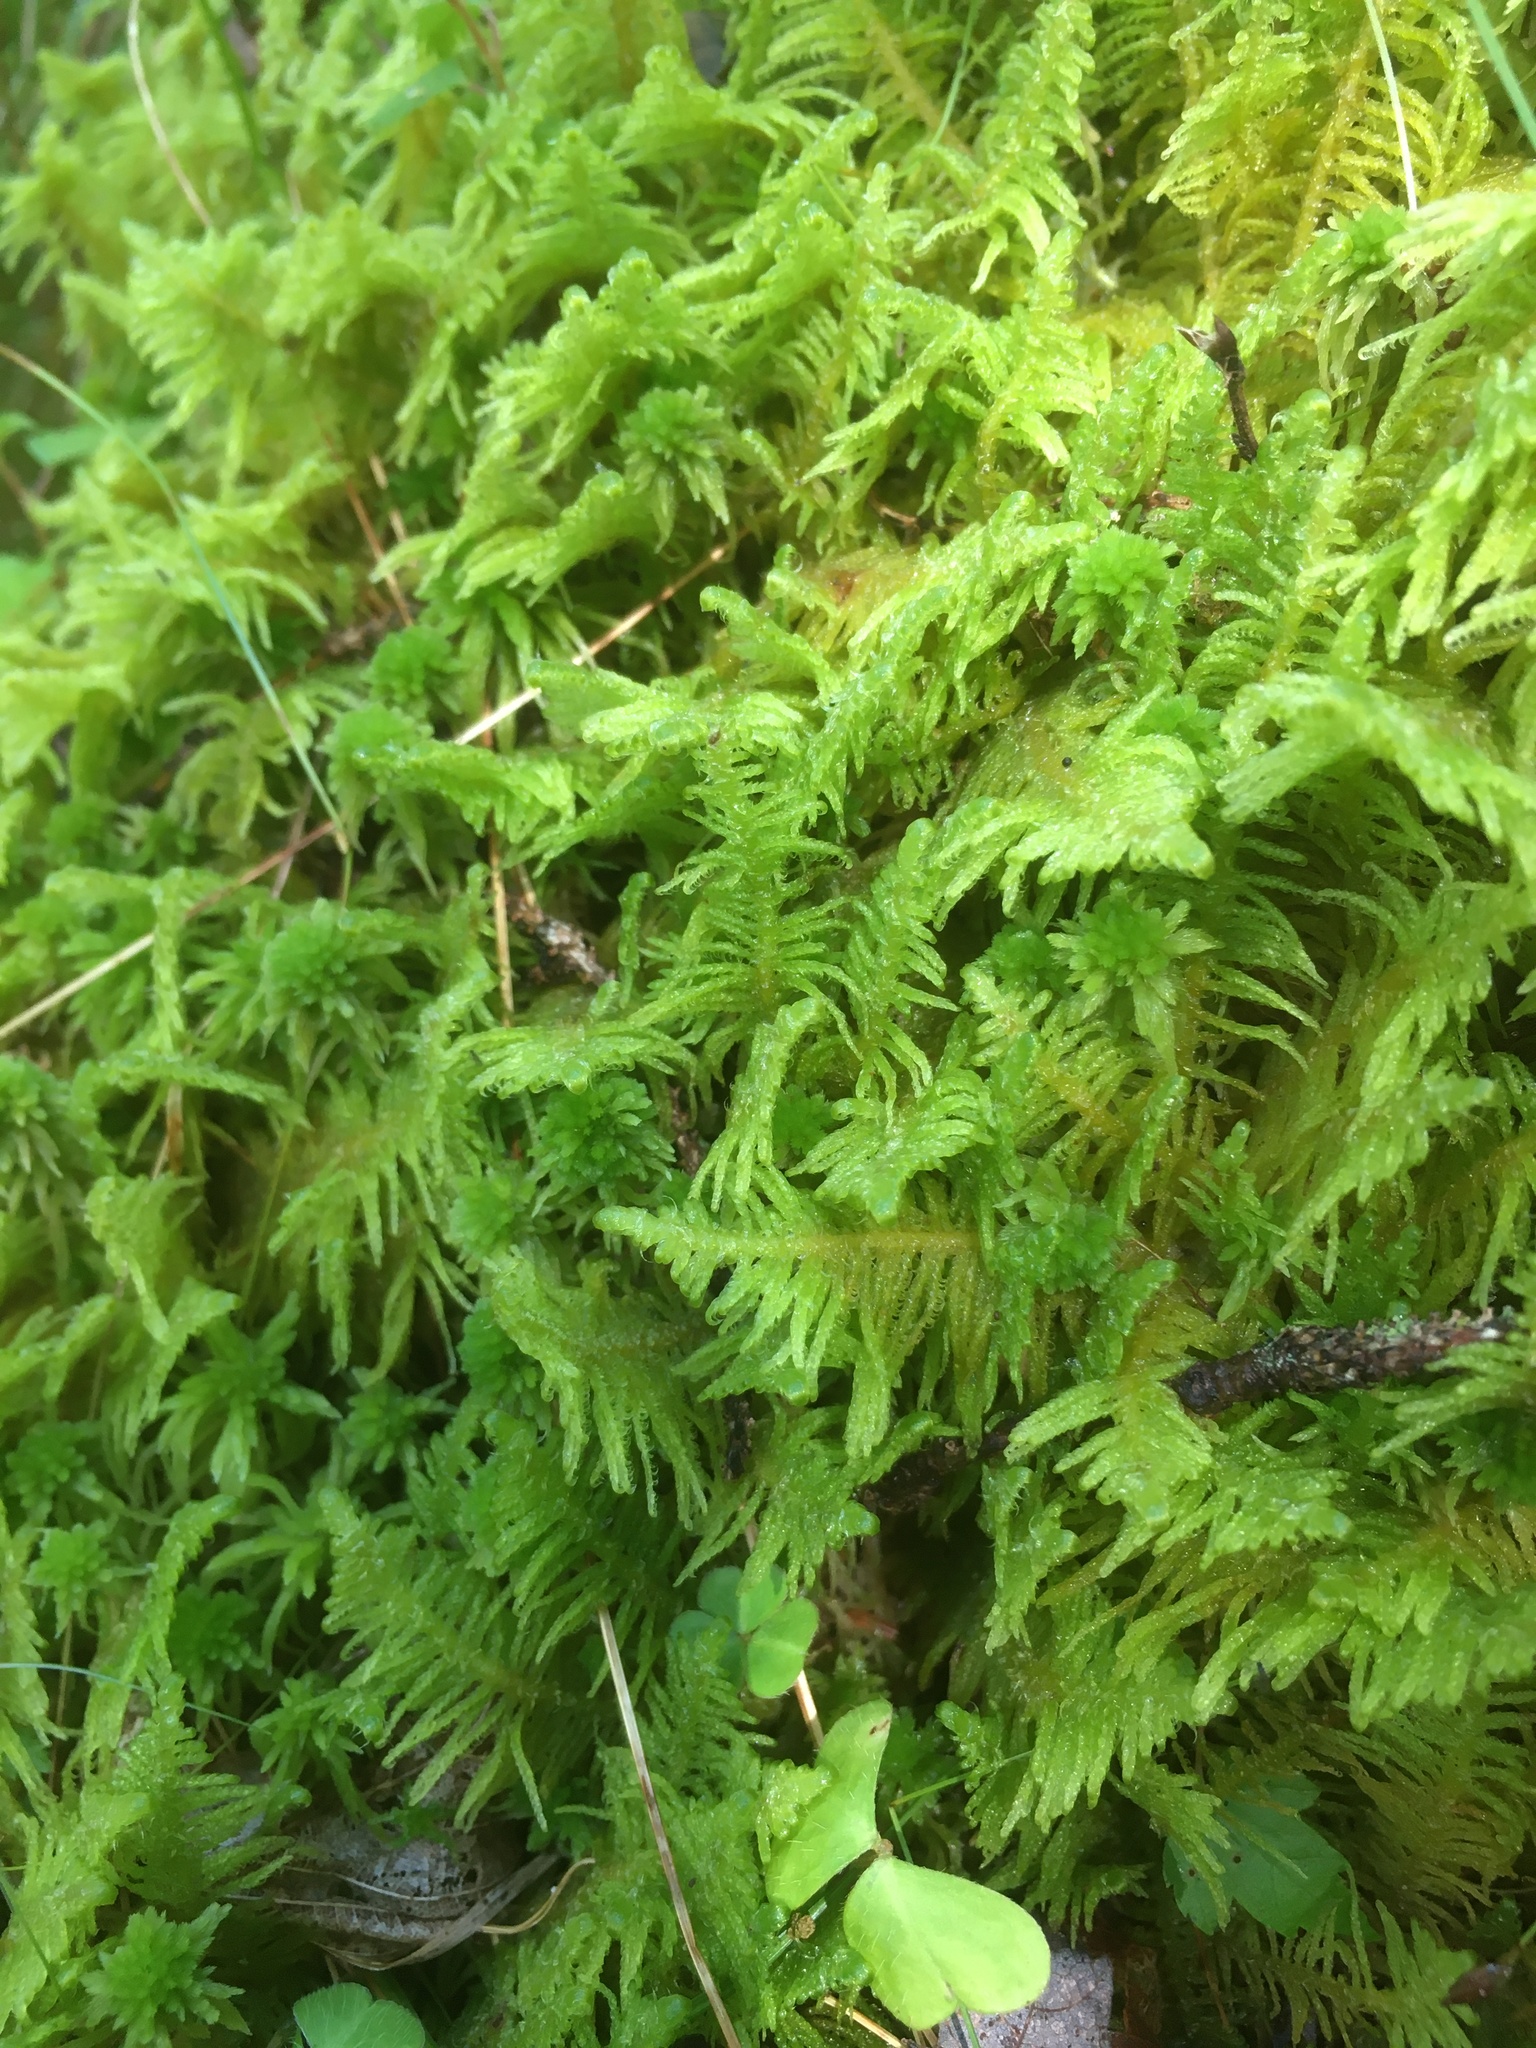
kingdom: Plantae
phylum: Bryophyta
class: Bryopsida
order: Hypnales
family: Pylaisiaceae
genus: Ptilium
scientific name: Ptilium crista-castrensis
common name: Knight's plume moss
